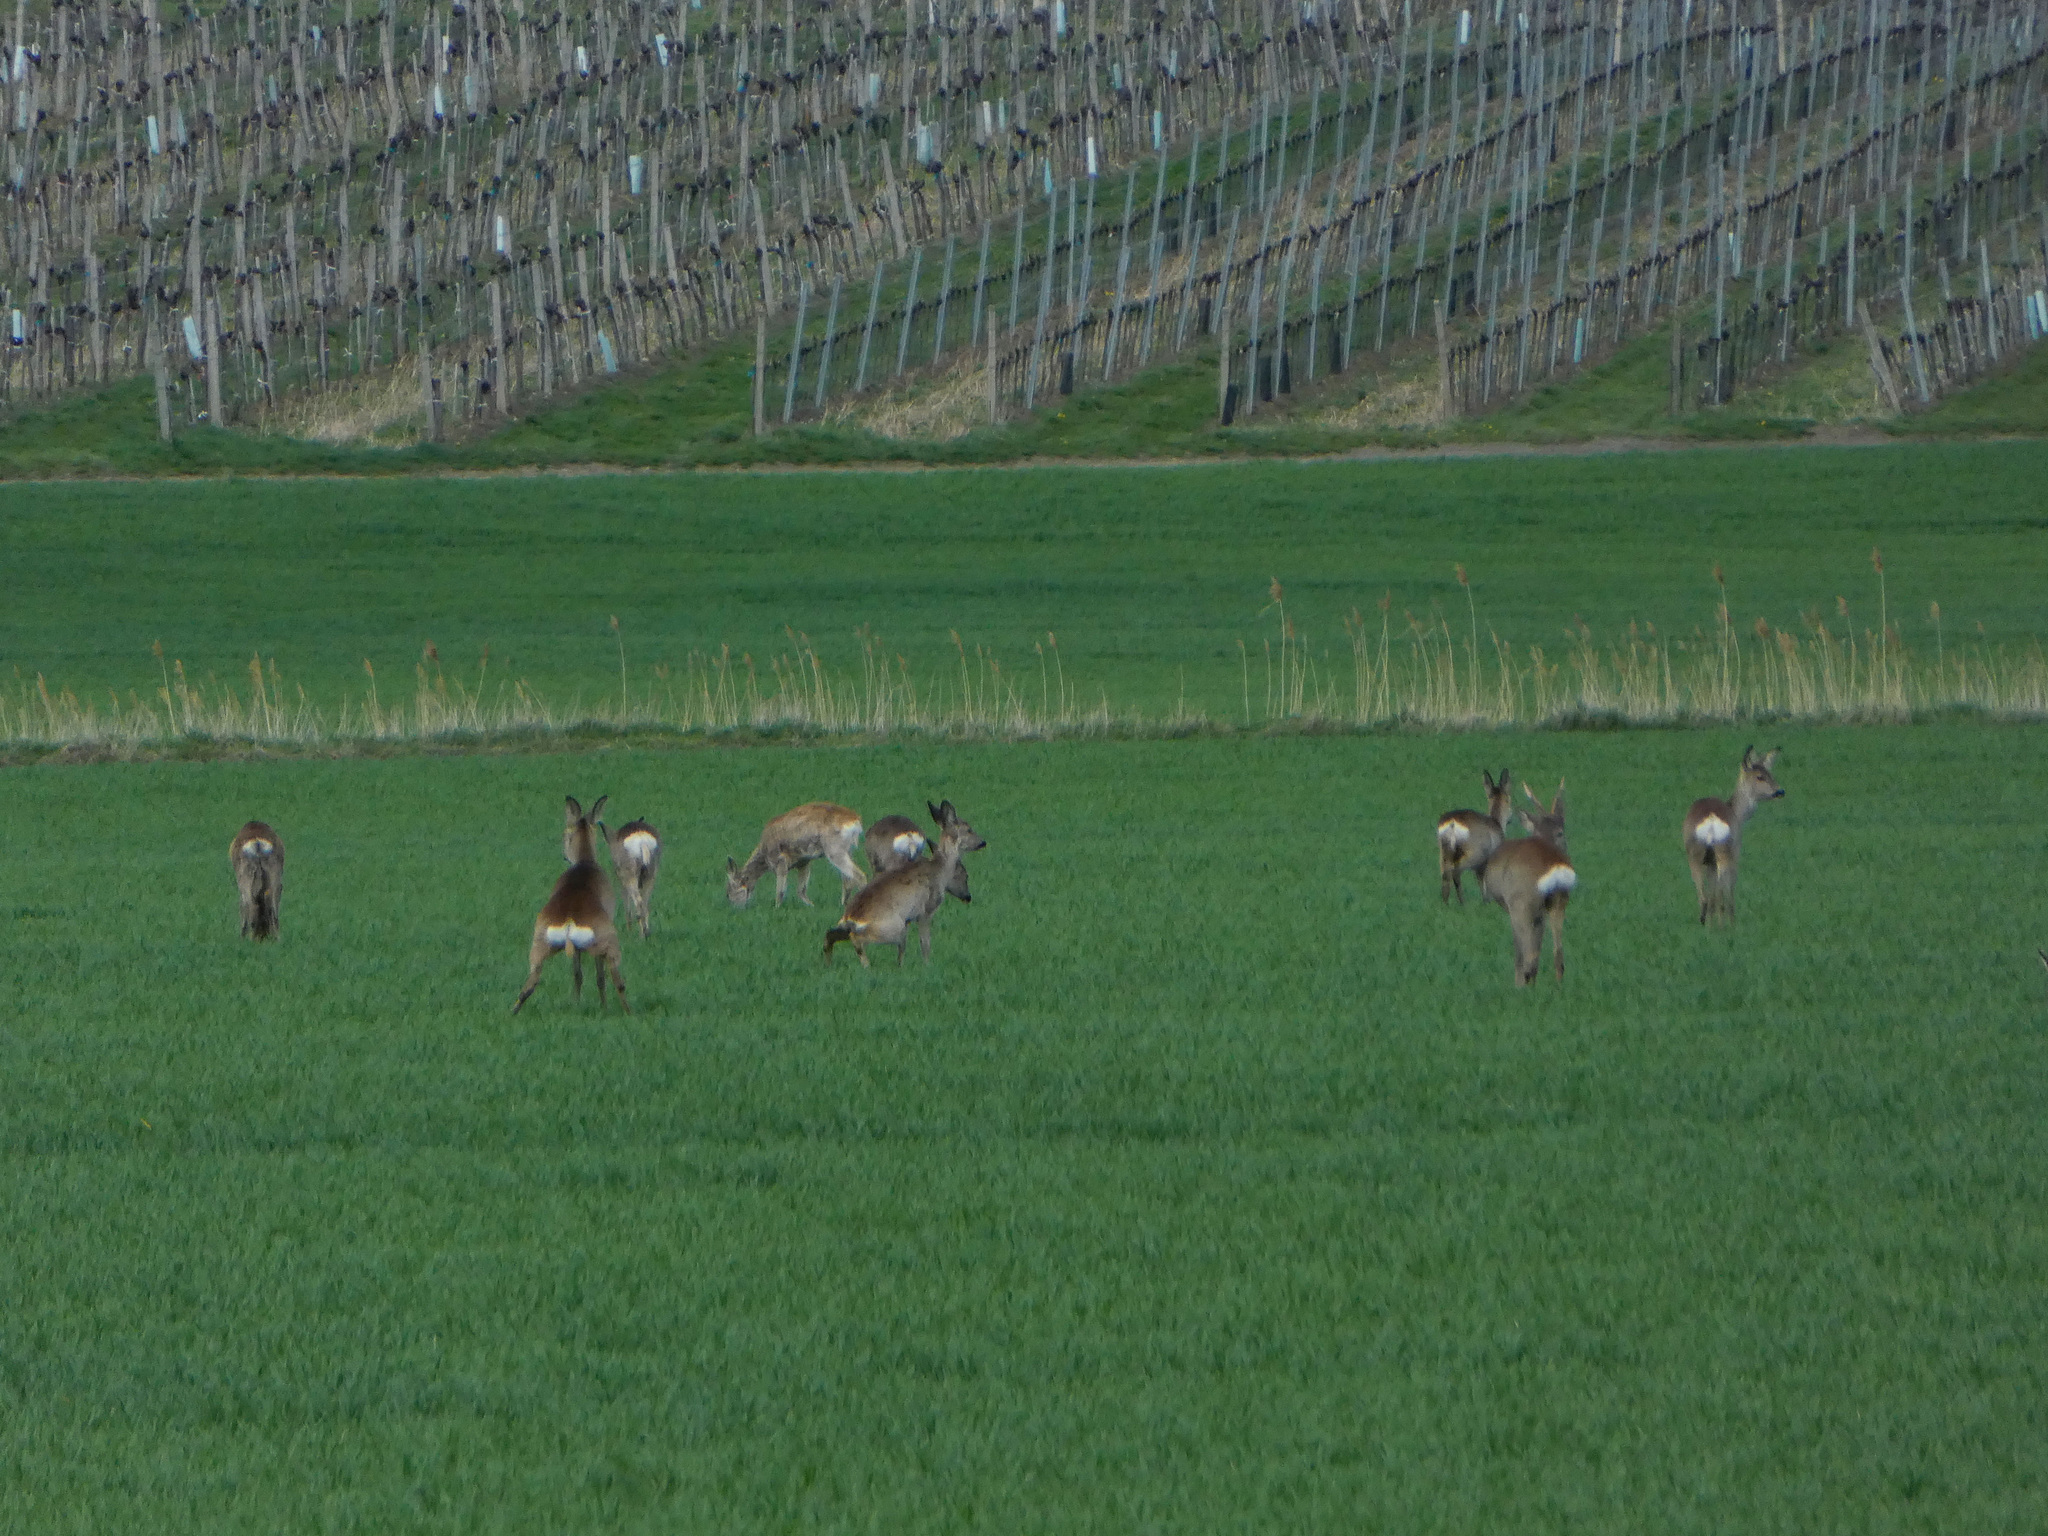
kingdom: Animalia
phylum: Chordata
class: Mammalia
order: Artiodactyla
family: Cervidae
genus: Capreolus
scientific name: Capreolus capreolus
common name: Western roe deer
